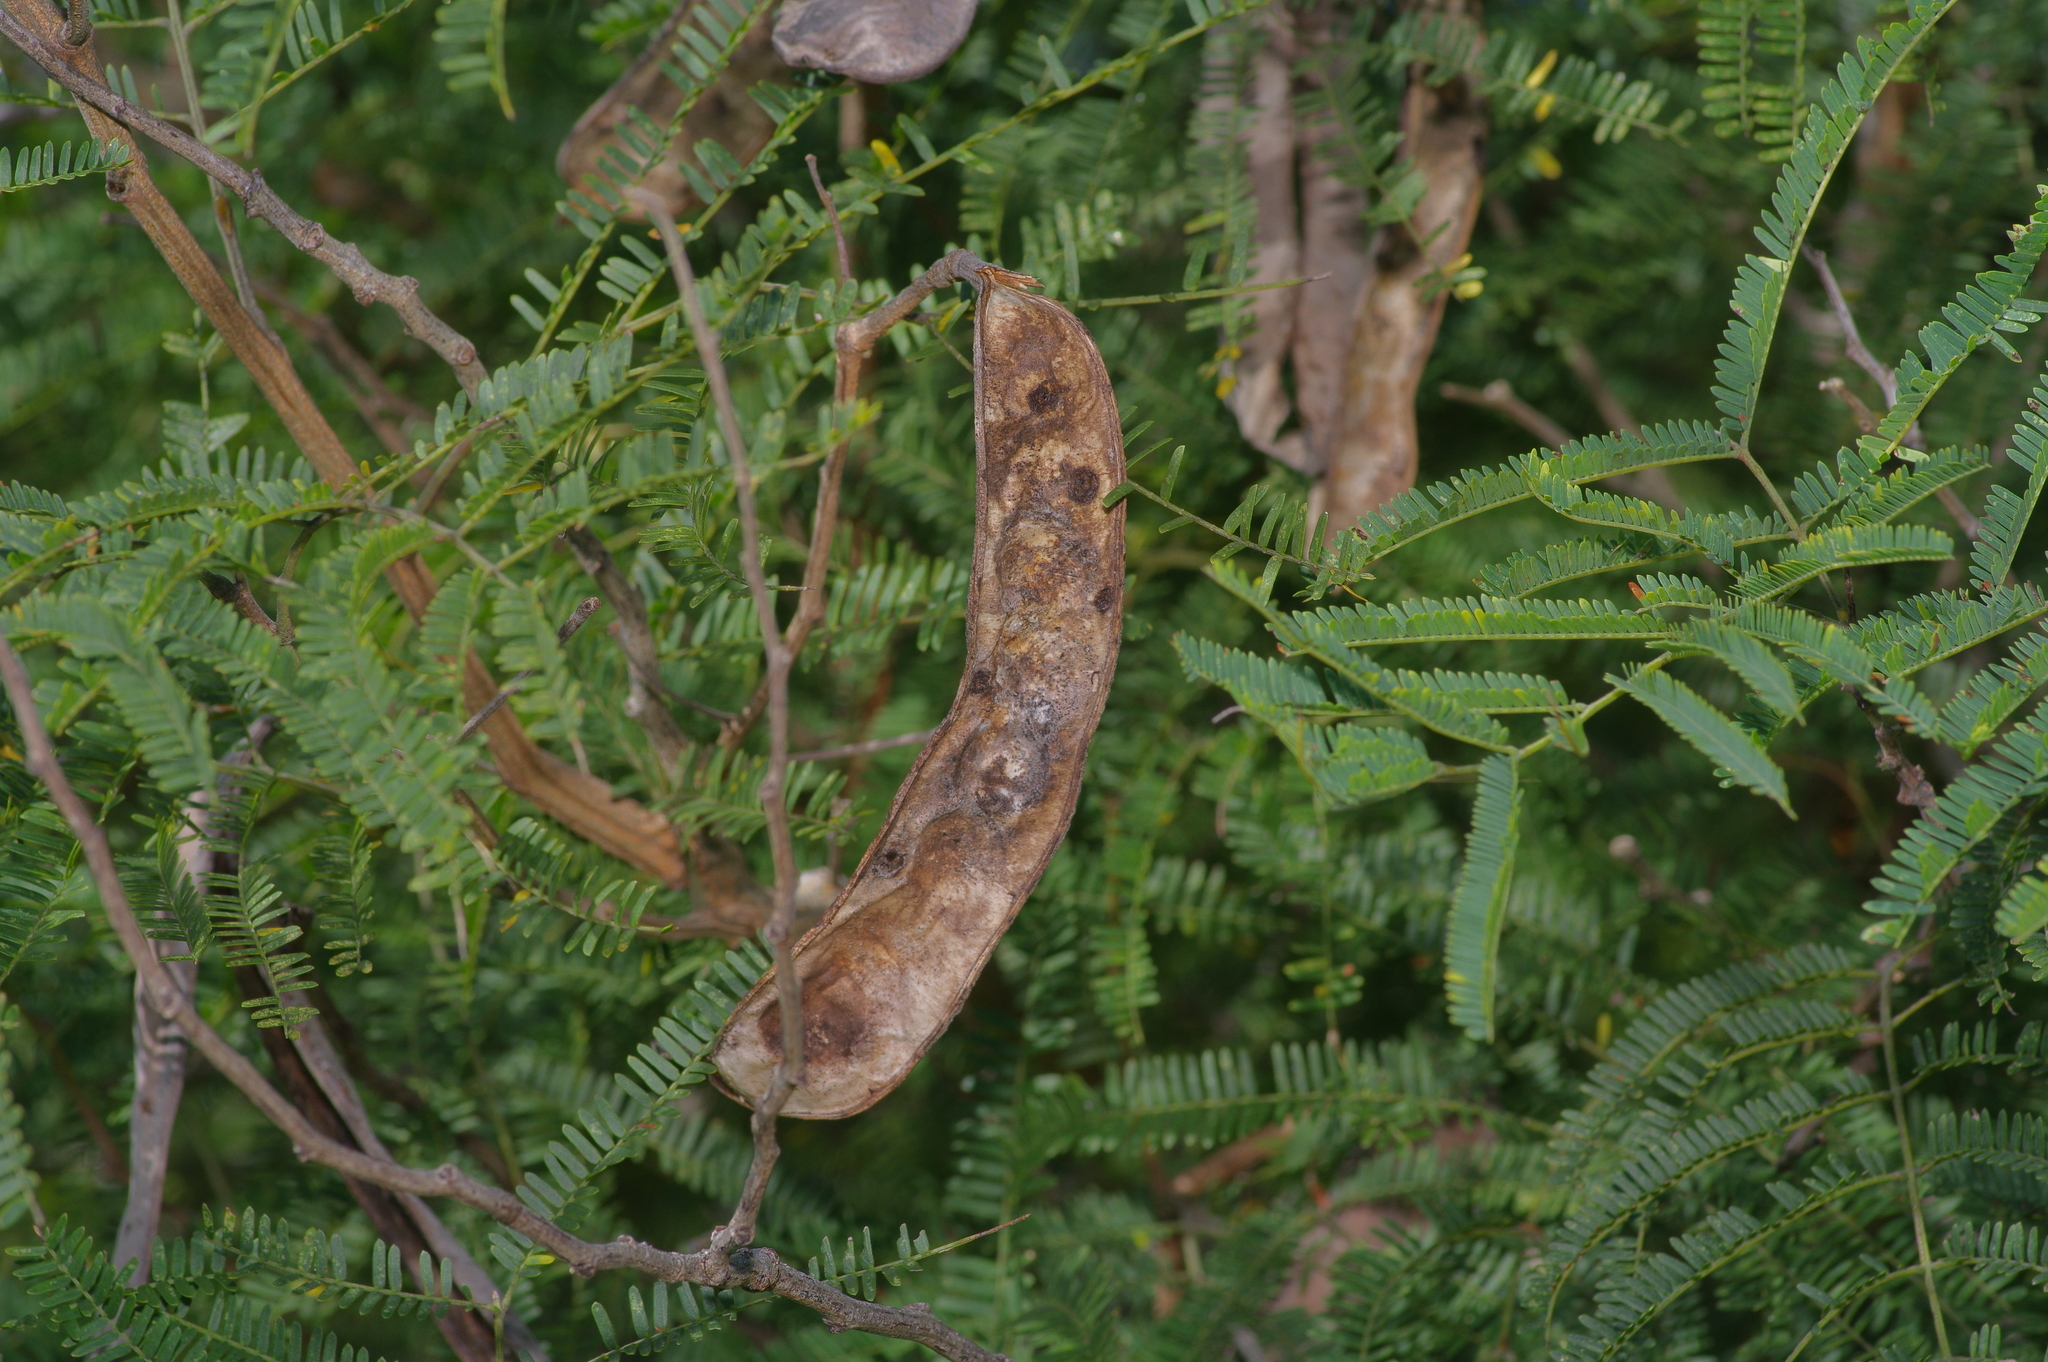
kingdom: Plantae
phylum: Tracheophyta
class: Magnoliopsida
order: Fabales
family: Fabaceae
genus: Senegalia
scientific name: Senegalia berlandieri
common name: Berlandier acacia
